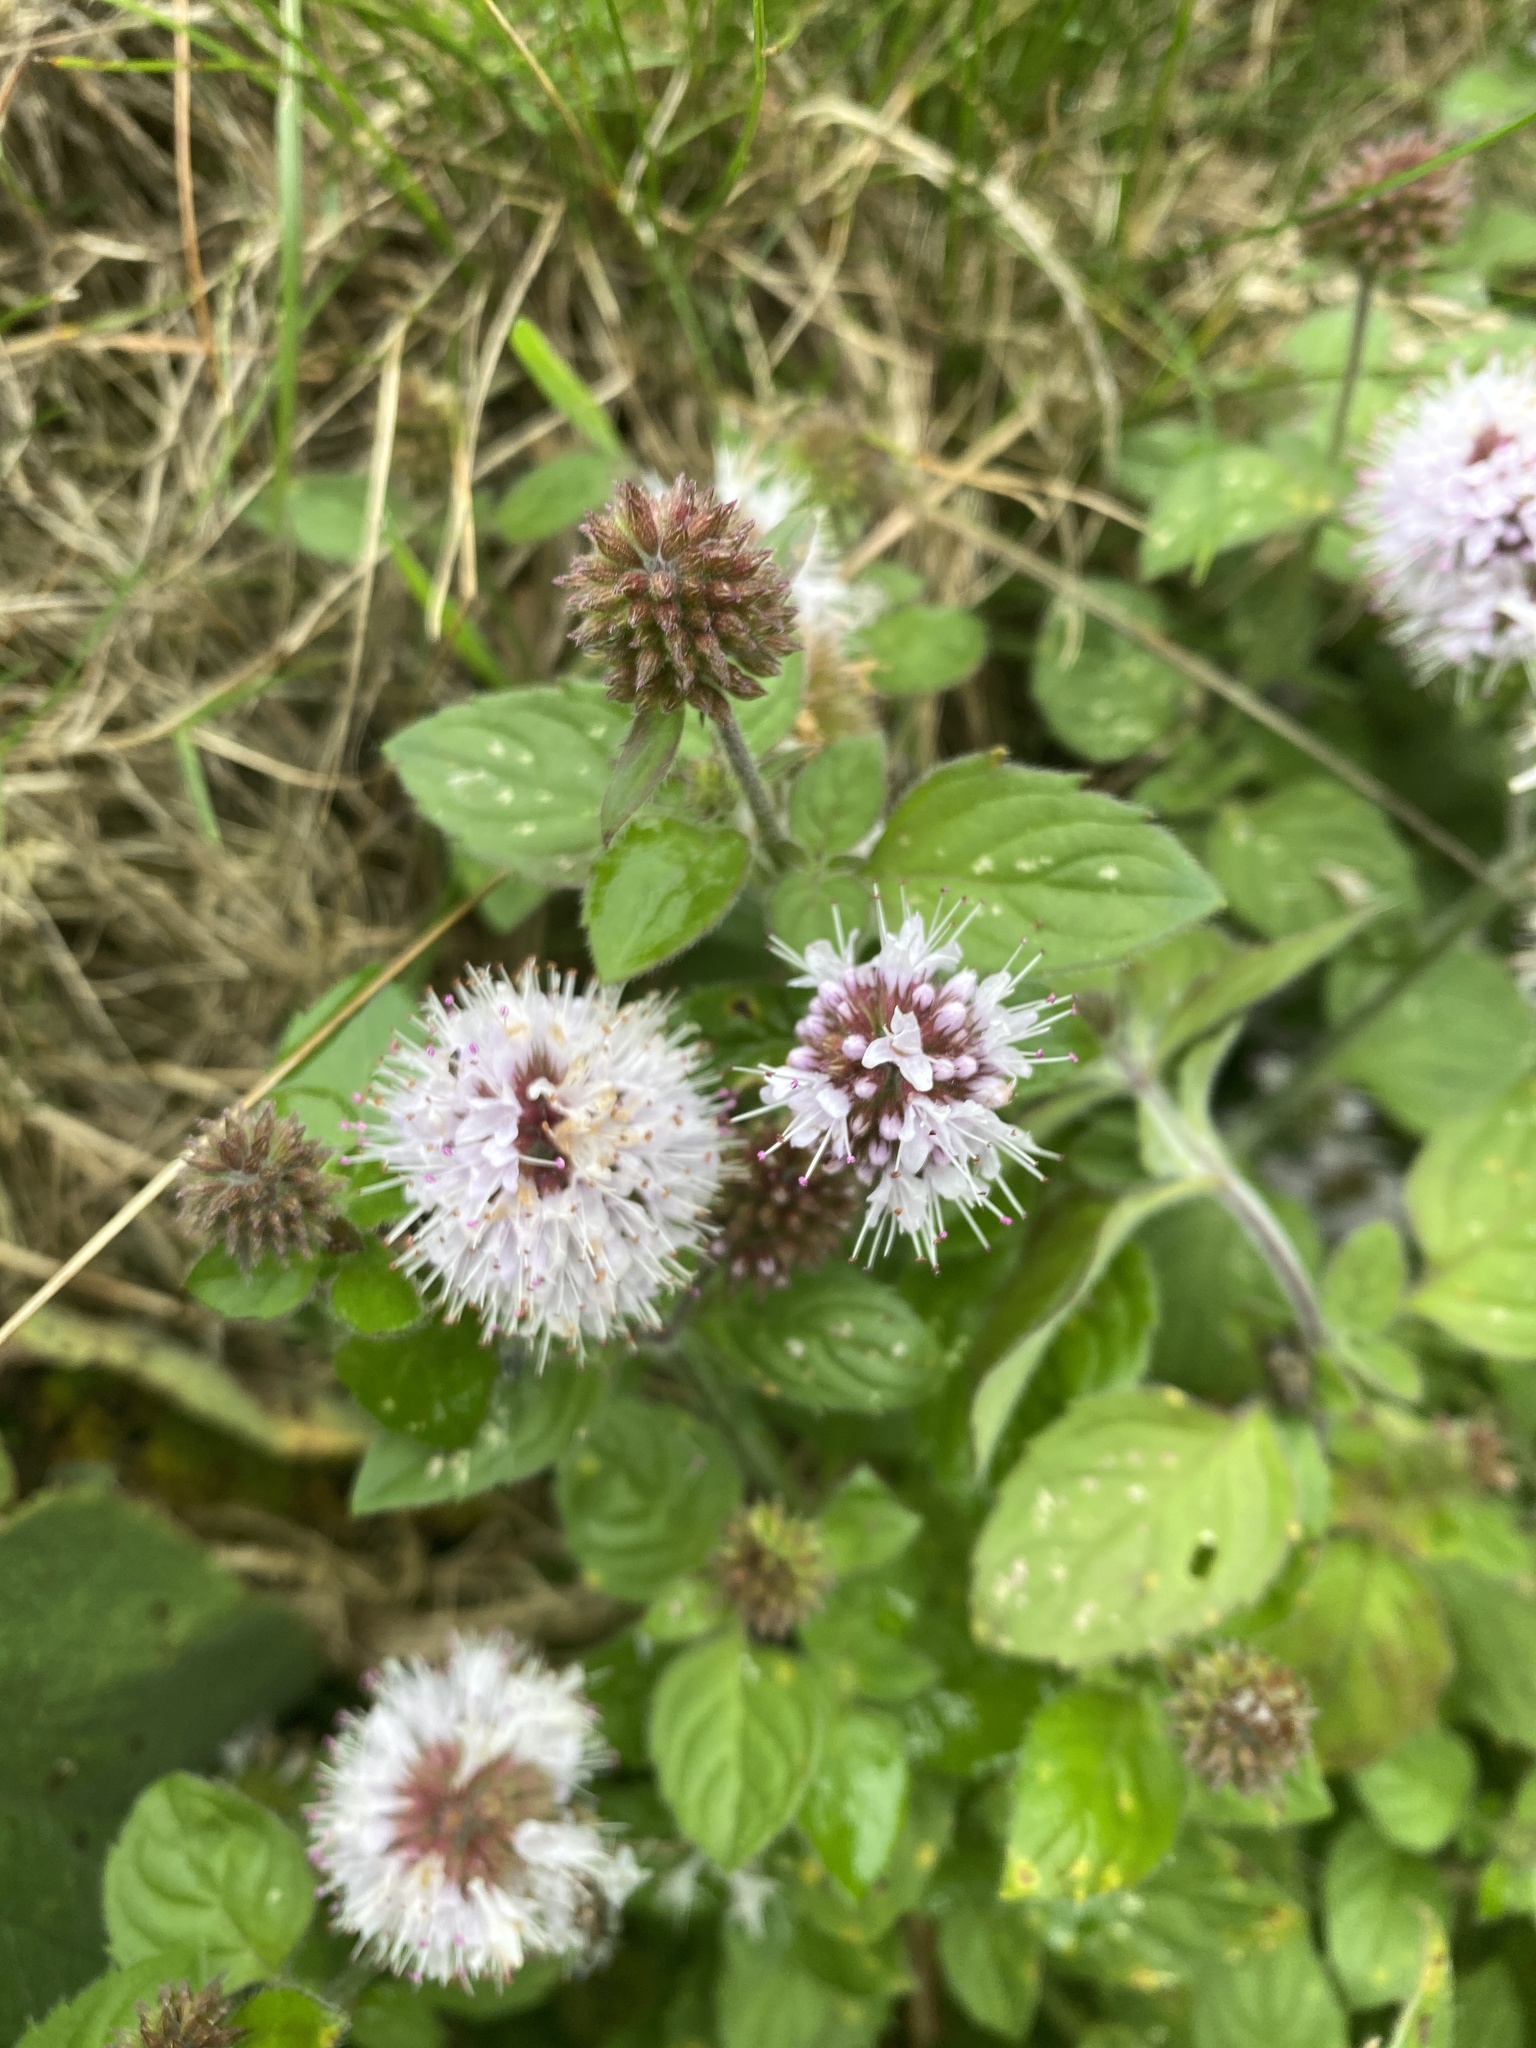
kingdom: Plantae
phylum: Tracheophyta
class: Magnoliopsida
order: Lamiales
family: Lamiaceae
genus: Mentha
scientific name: Mentha aquatica
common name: Water mint
